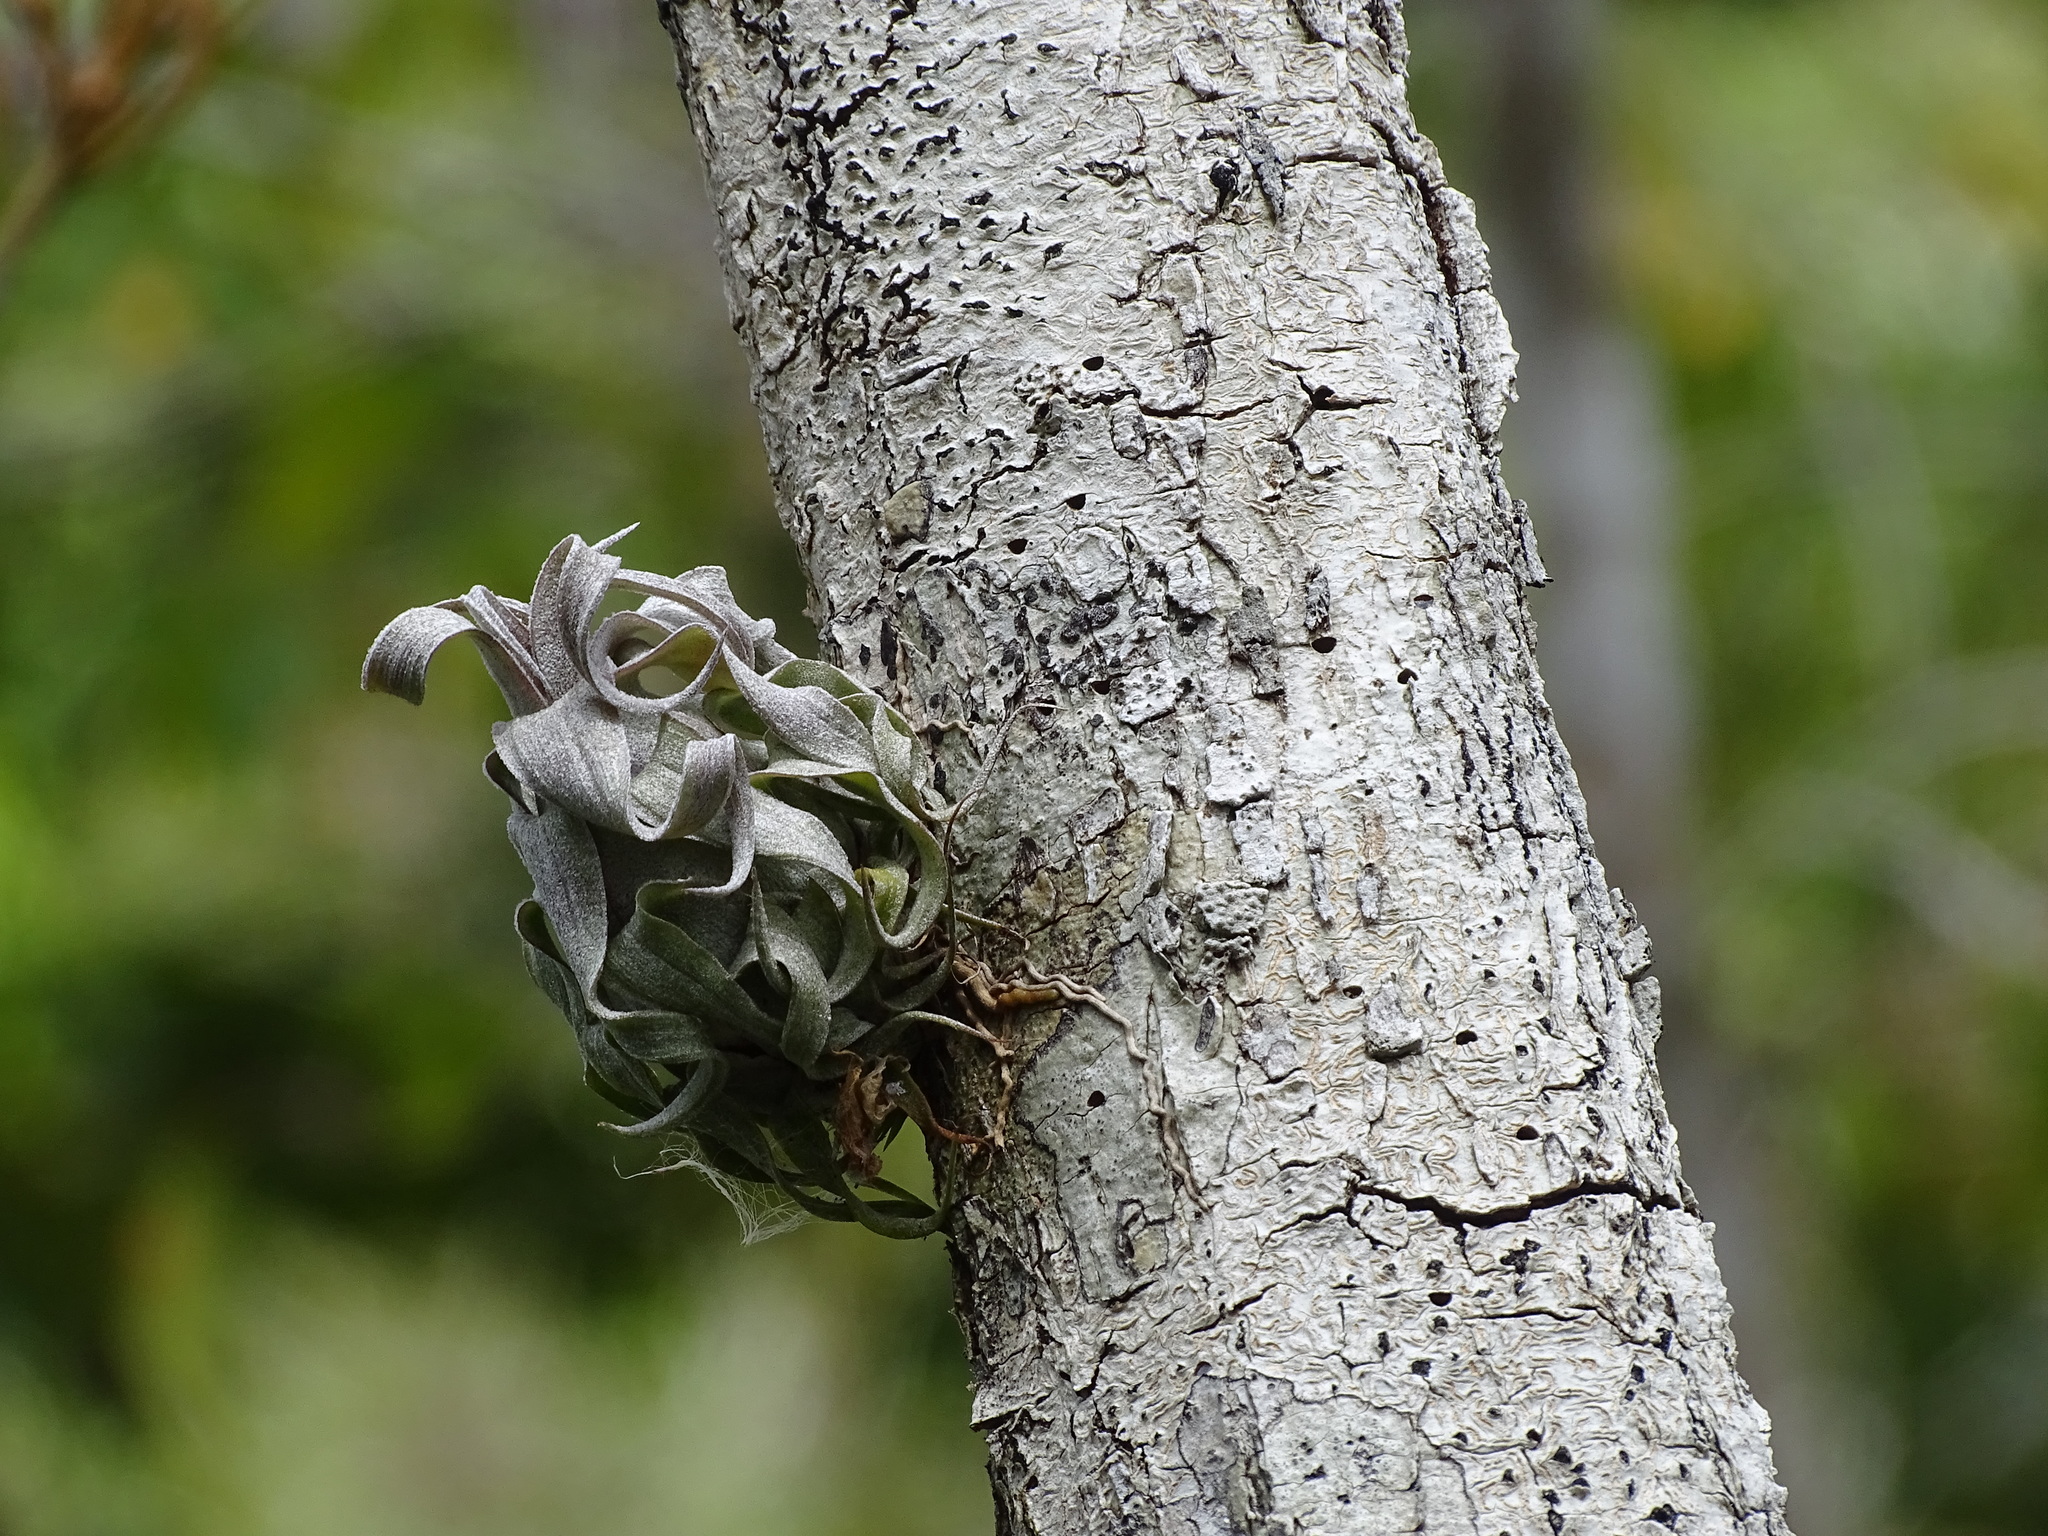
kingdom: Plantae
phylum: Tracheophyta
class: Liliopsida
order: Poales
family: Bromeliaceae
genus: Tillandsia
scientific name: Tillandsia streptophylla
